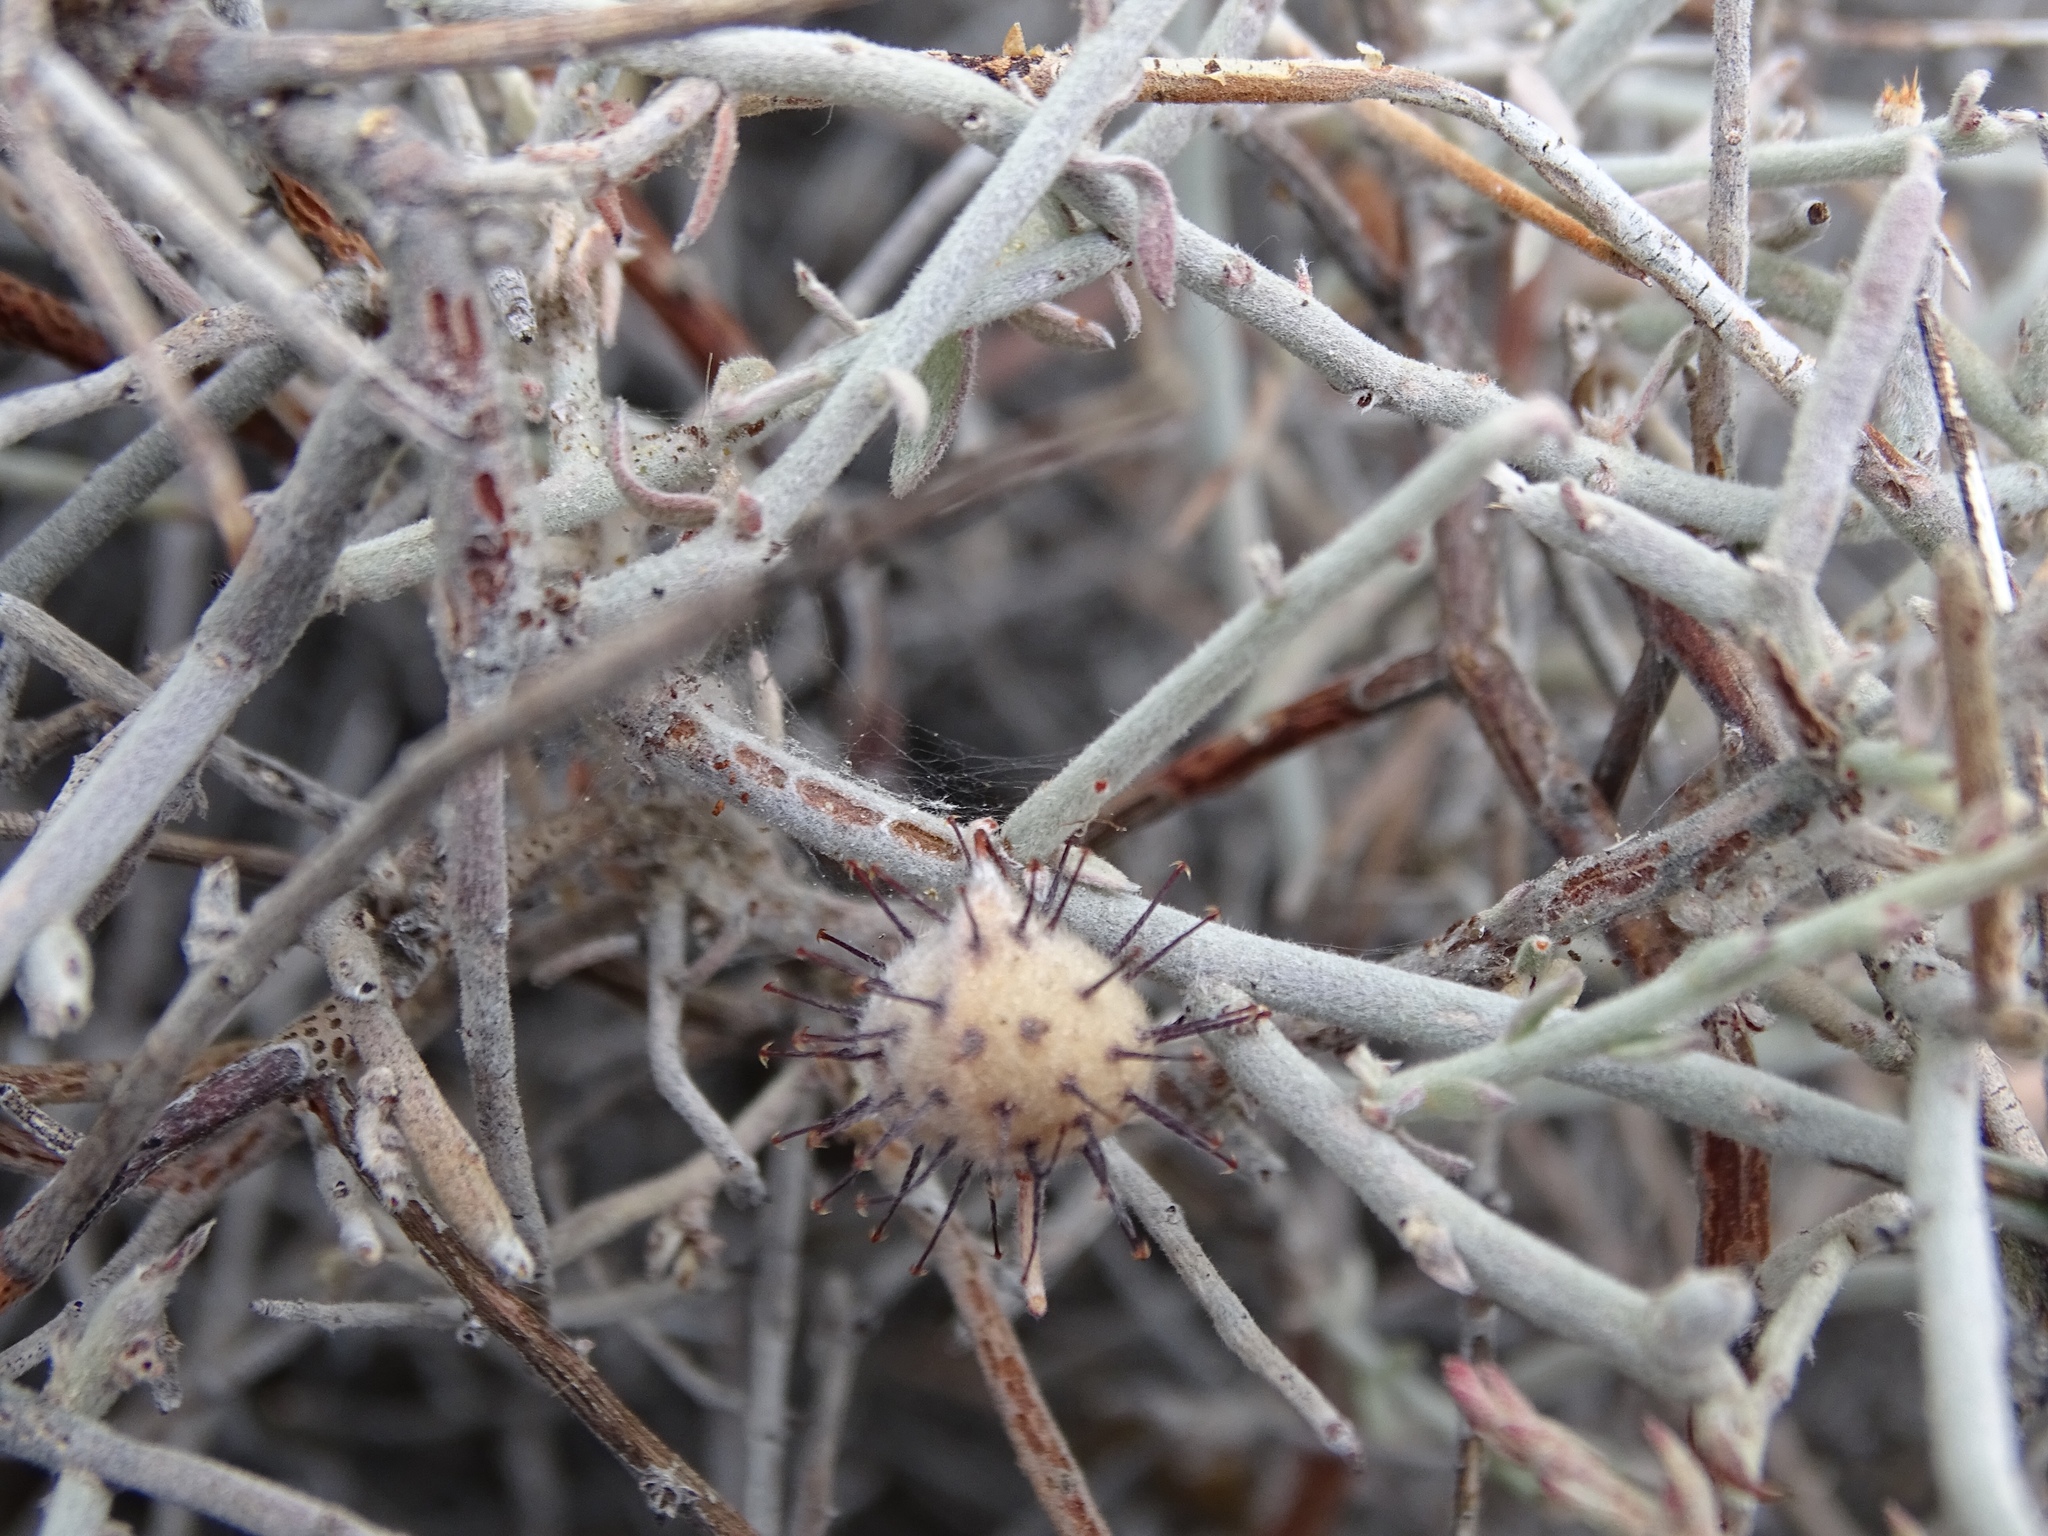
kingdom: Plantae
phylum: Tracheophyta
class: Magnoliopsida
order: Zygophyllales
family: Krameriaceae
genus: Krameria
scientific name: Krameria bicolor
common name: White ratany
